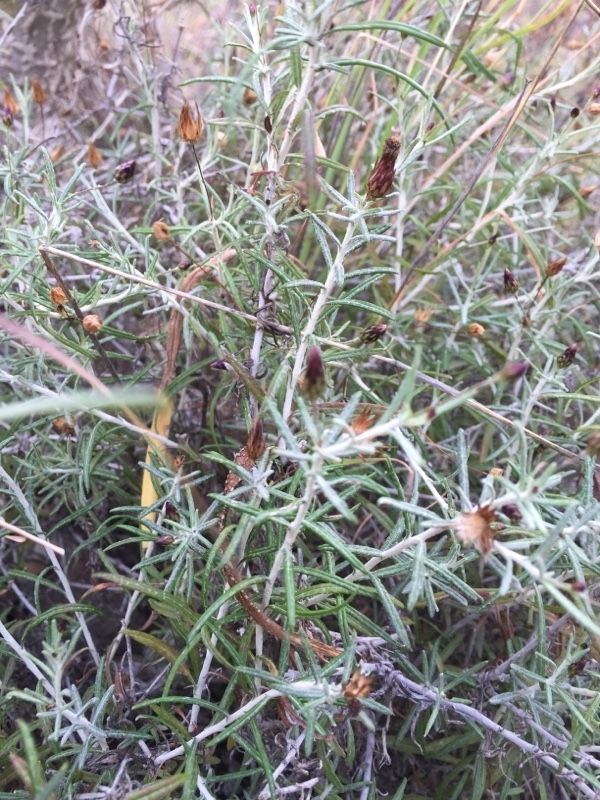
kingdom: Plantae
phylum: Tracheophyta
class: Magnoliopsida
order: Asterales
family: Asteraceae
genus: Phagnalon
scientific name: Phagnalon purpurascens
